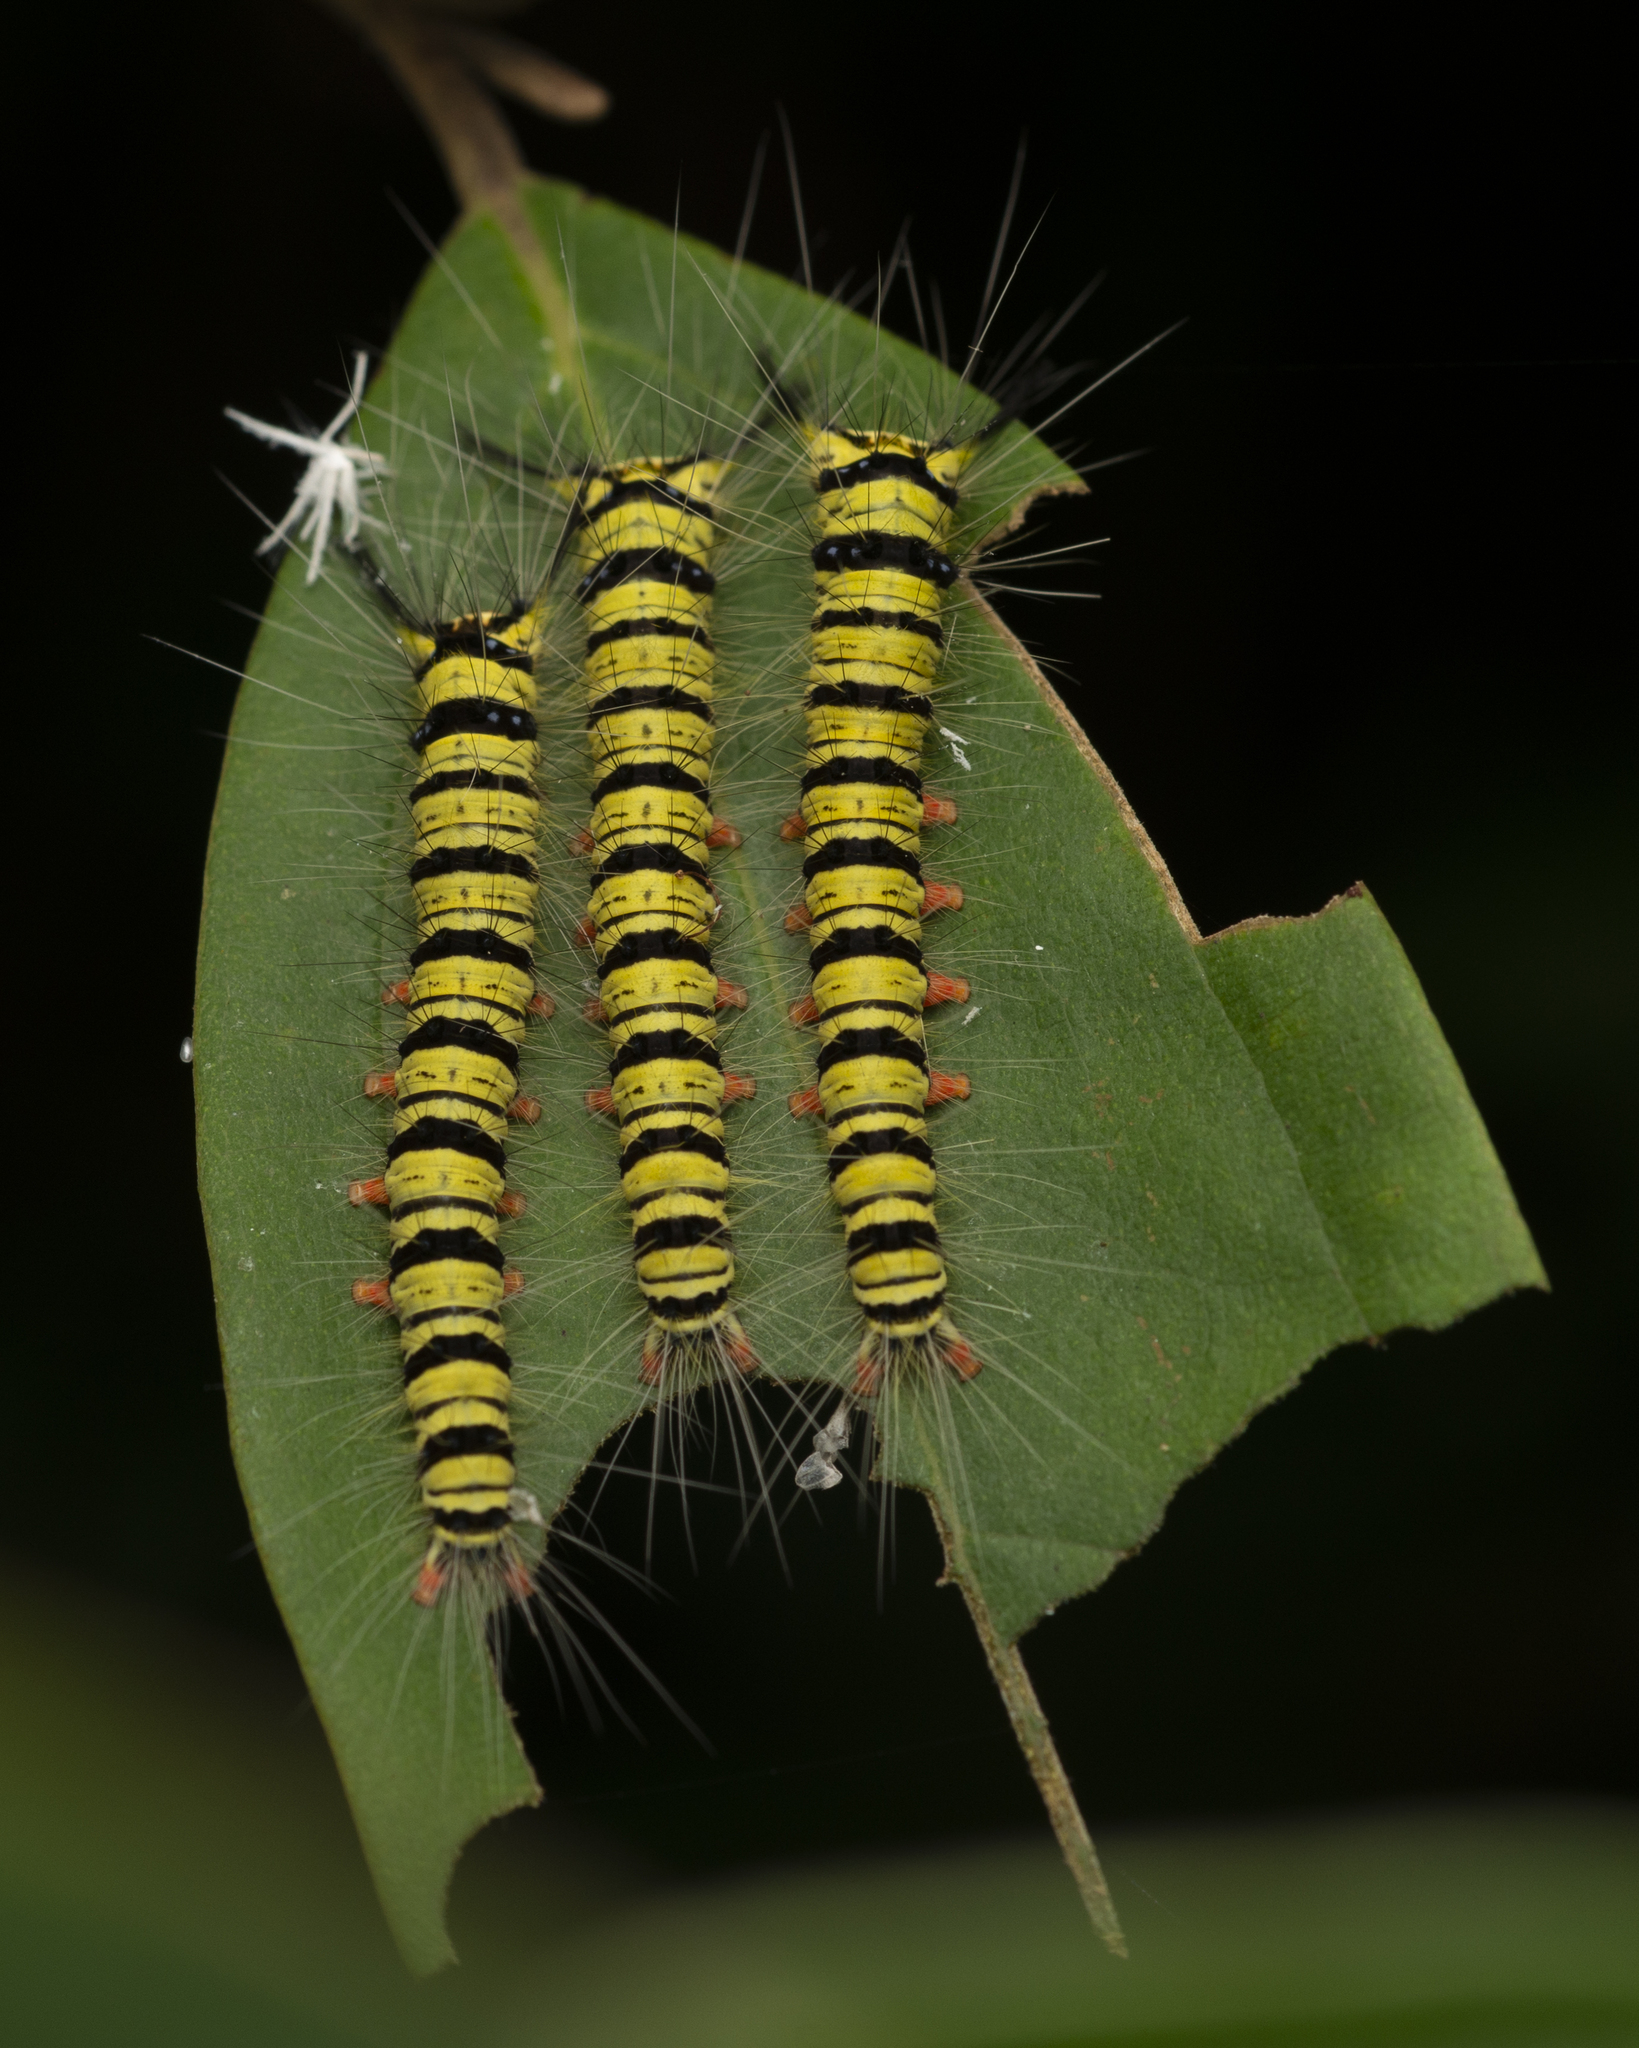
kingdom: Animalia
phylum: Arthropoda
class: Insecta
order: Lepidoptera
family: Lasiocampidae
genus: Trabala
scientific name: Trabala pallida
